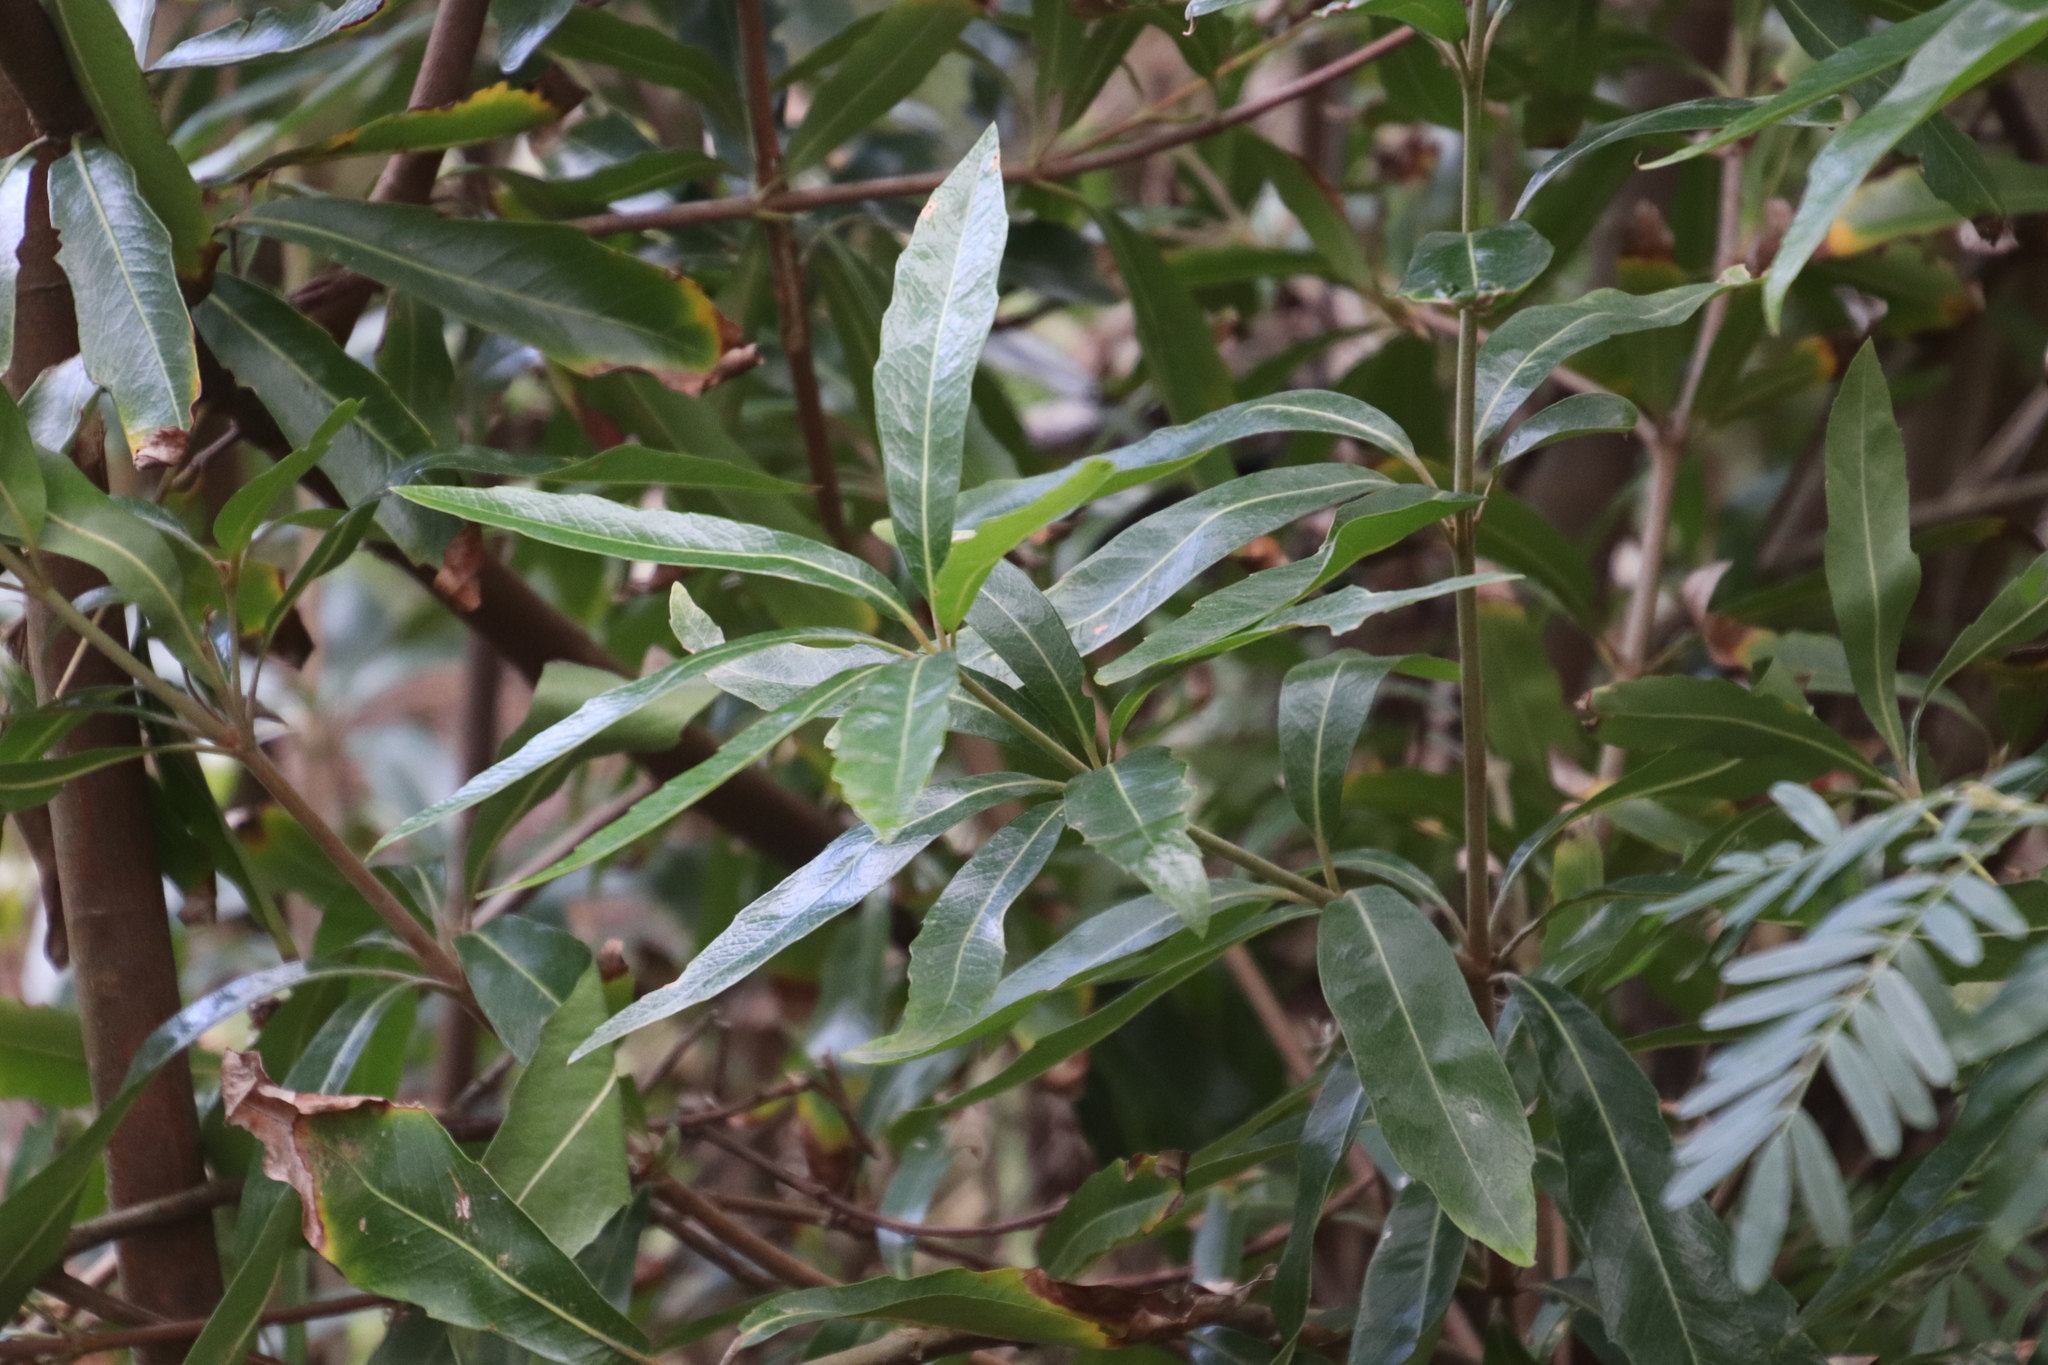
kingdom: Plantae
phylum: Tracheophyta
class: Magnoliopsida
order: Proteales
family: Proteaceae
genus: Brabejum
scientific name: Brabejum stellatifolium
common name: Wild almond
